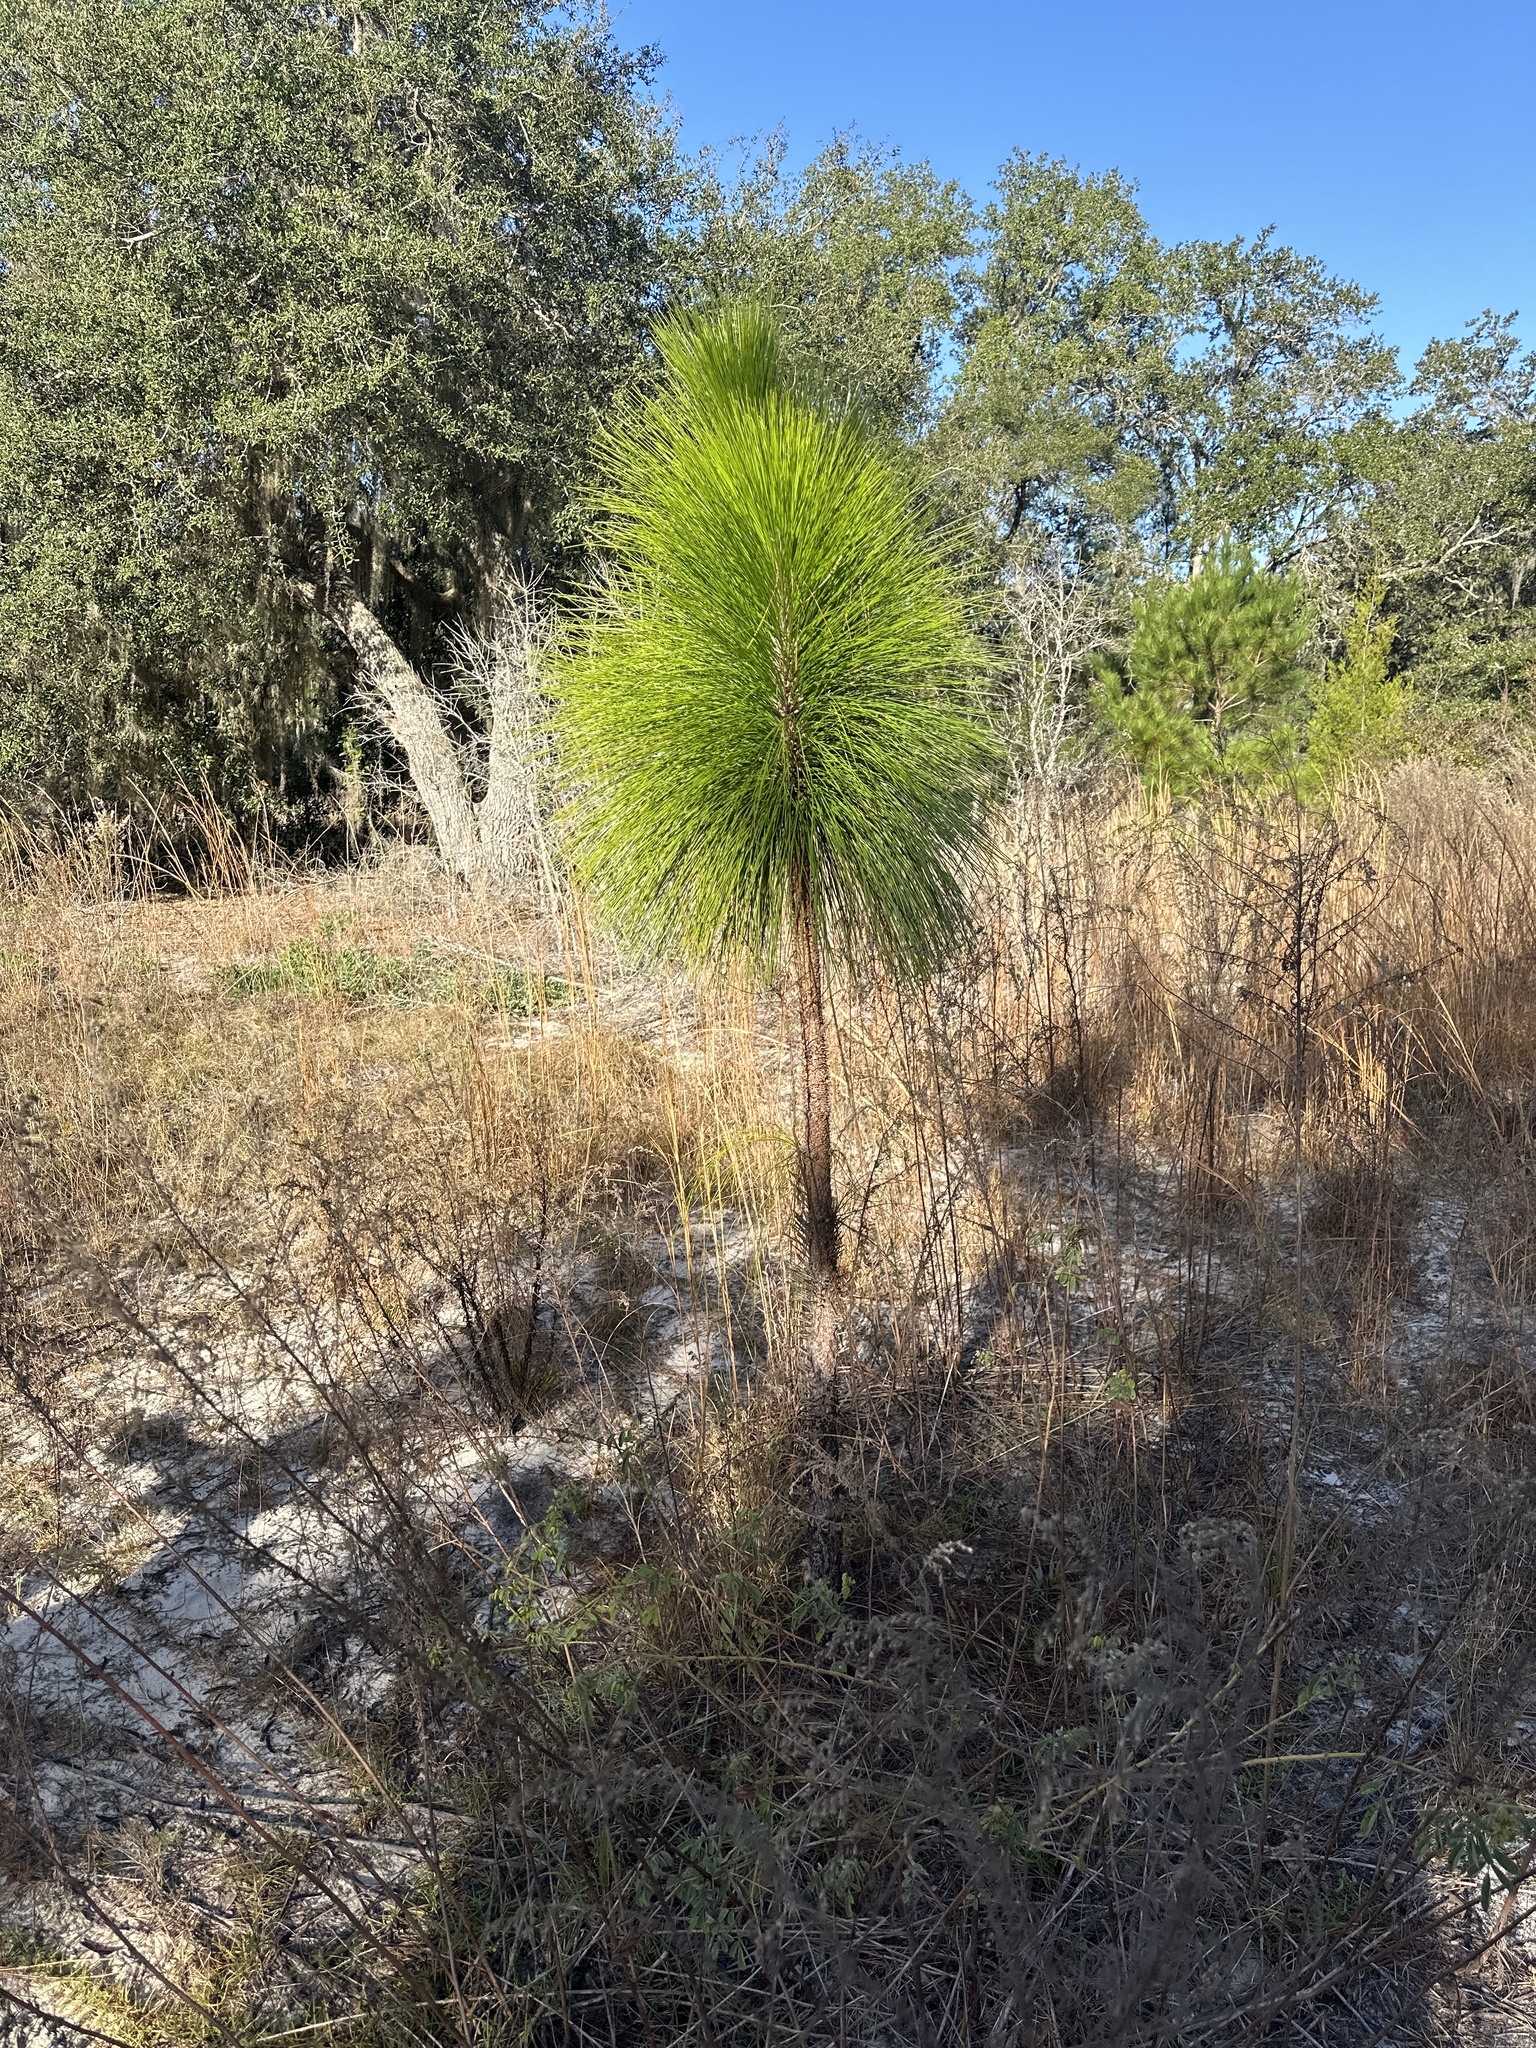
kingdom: Plantae
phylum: Tracheophyta
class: Pinopsida
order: Pinales
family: Pinaceae
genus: Pinus
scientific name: Pinus palustris
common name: Longleaf pine
